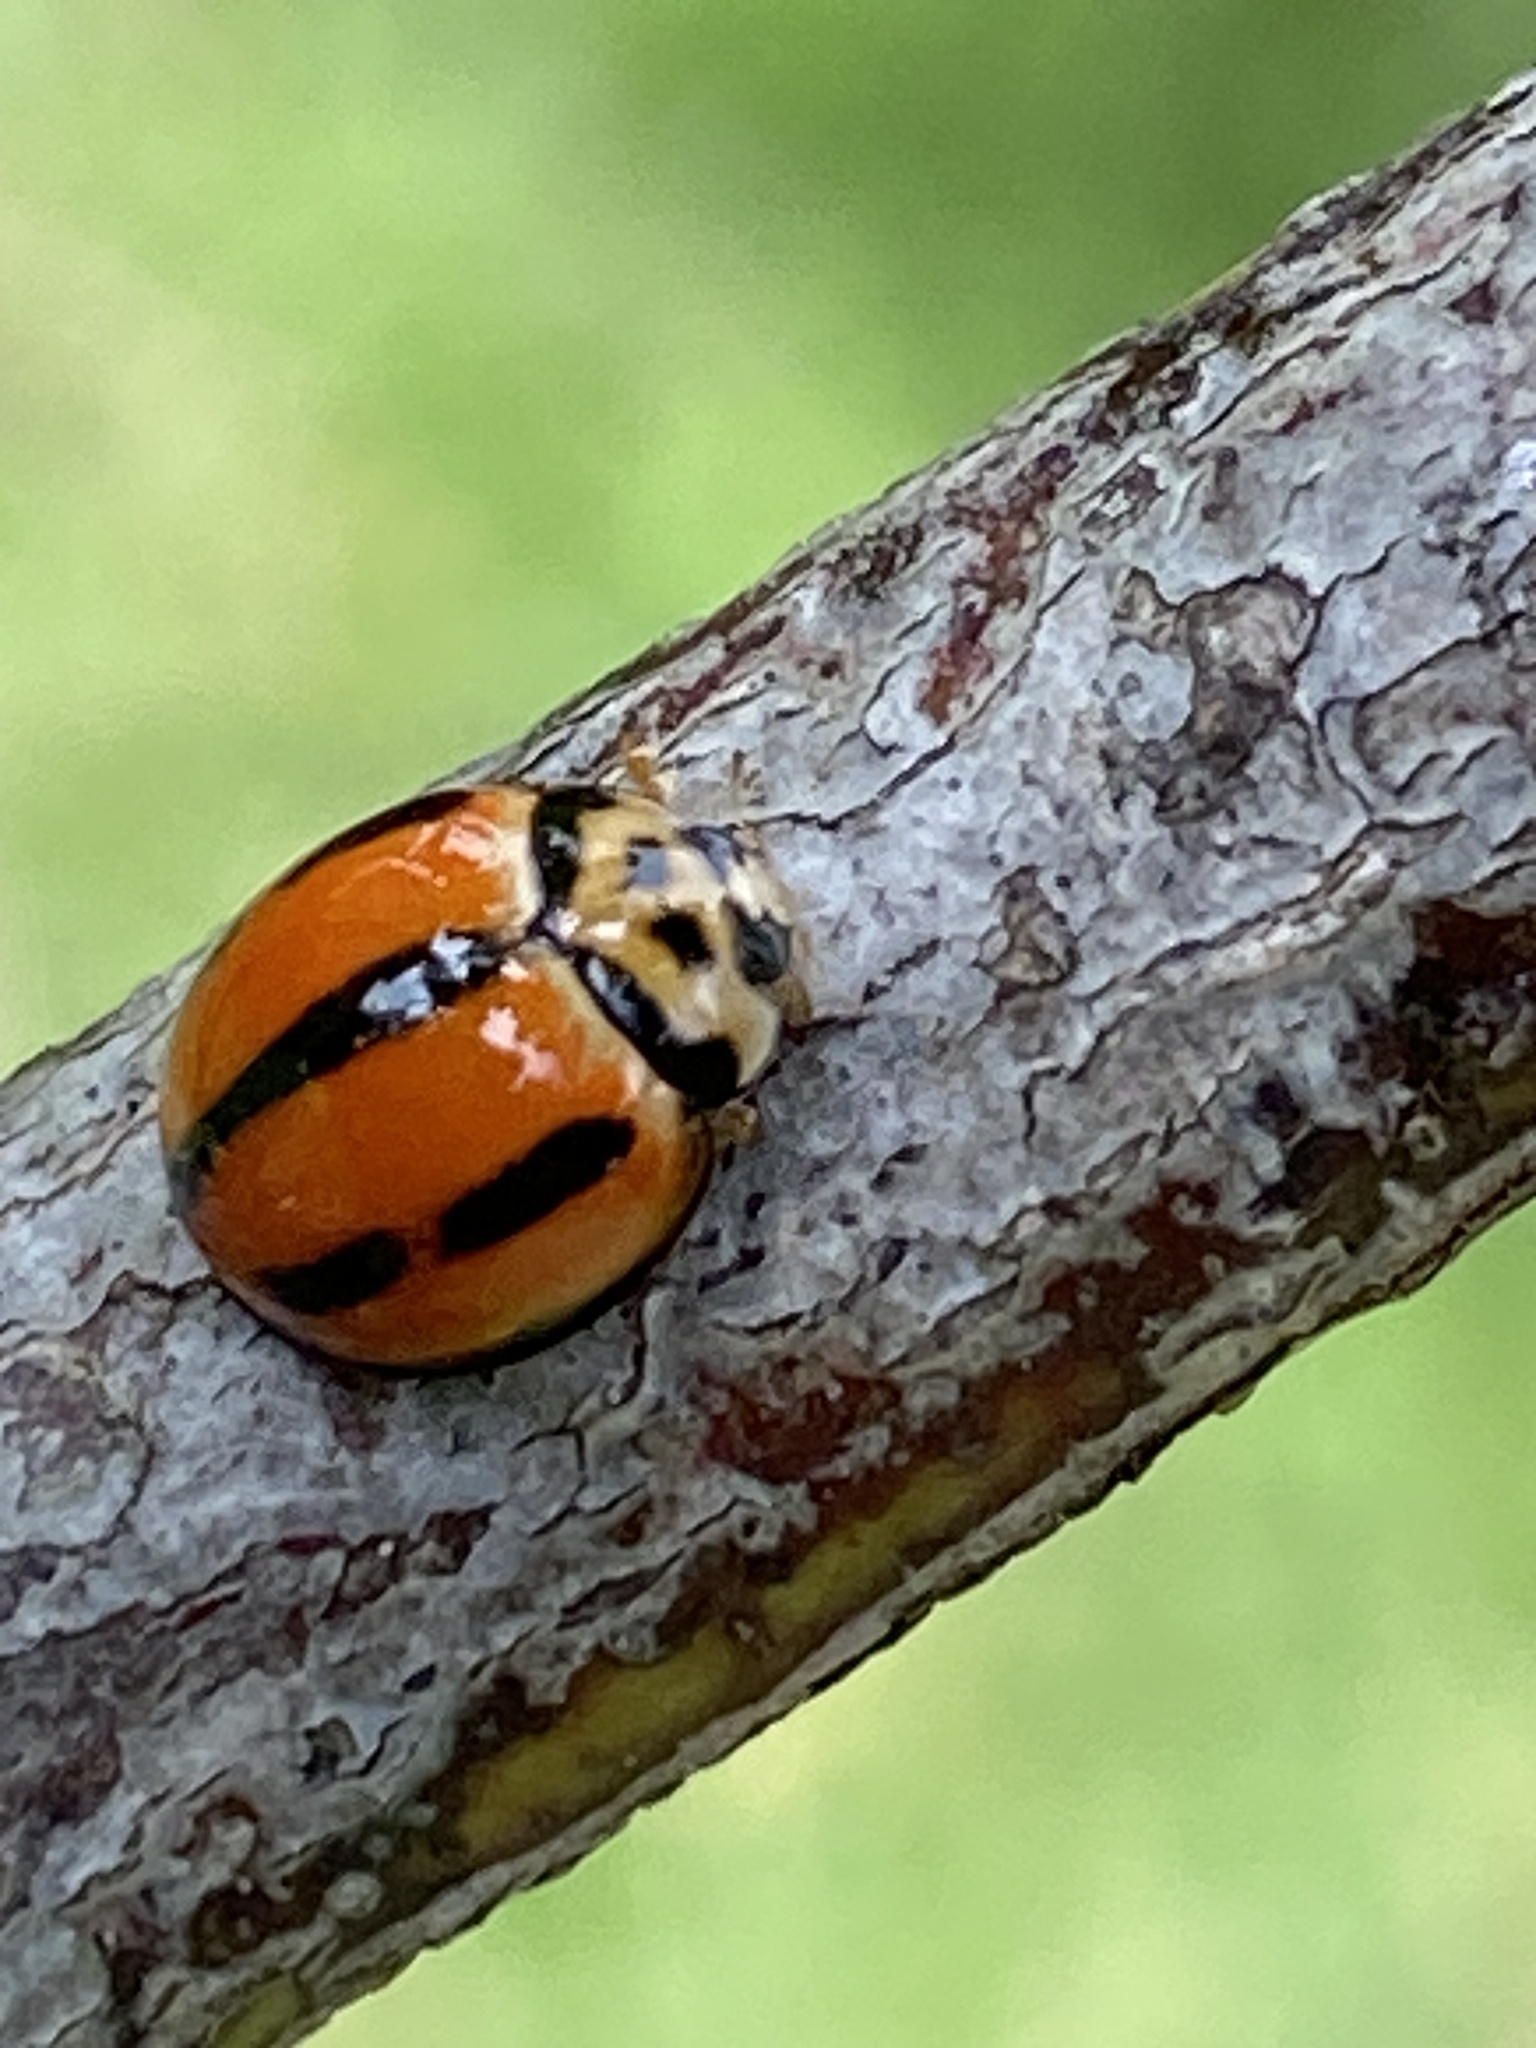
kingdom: Animalia
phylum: Arthropoda
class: Insecta
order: Coleoptera
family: Coccinellidae
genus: Coelophora
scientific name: Coelophora inaequalis
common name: Common australian lady beetle
